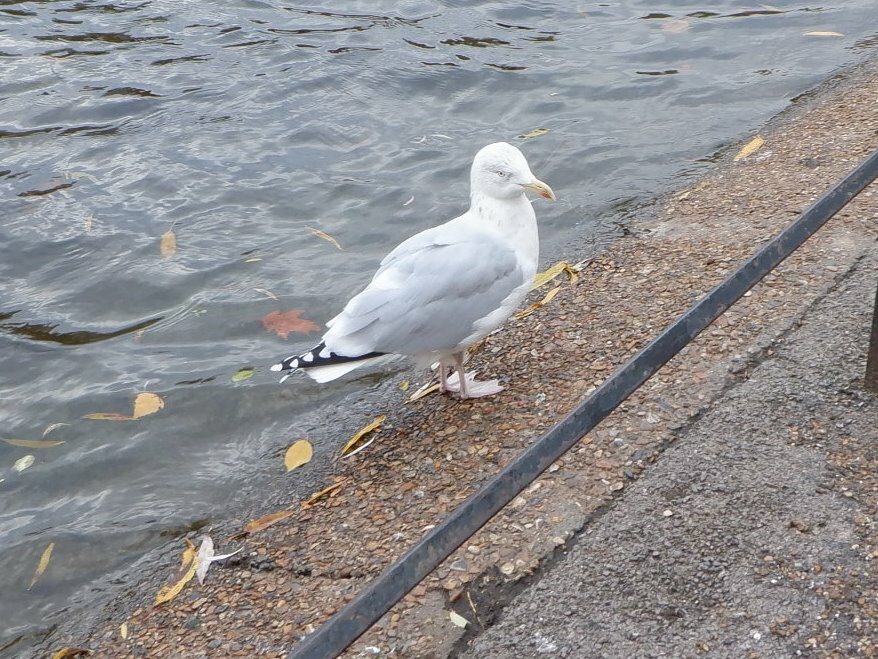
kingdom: Animalia
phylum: Chordata
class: Aves
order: Charadriiformes
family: Laridae
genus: Larus
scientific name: Larus argentatus
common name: Herring gull
